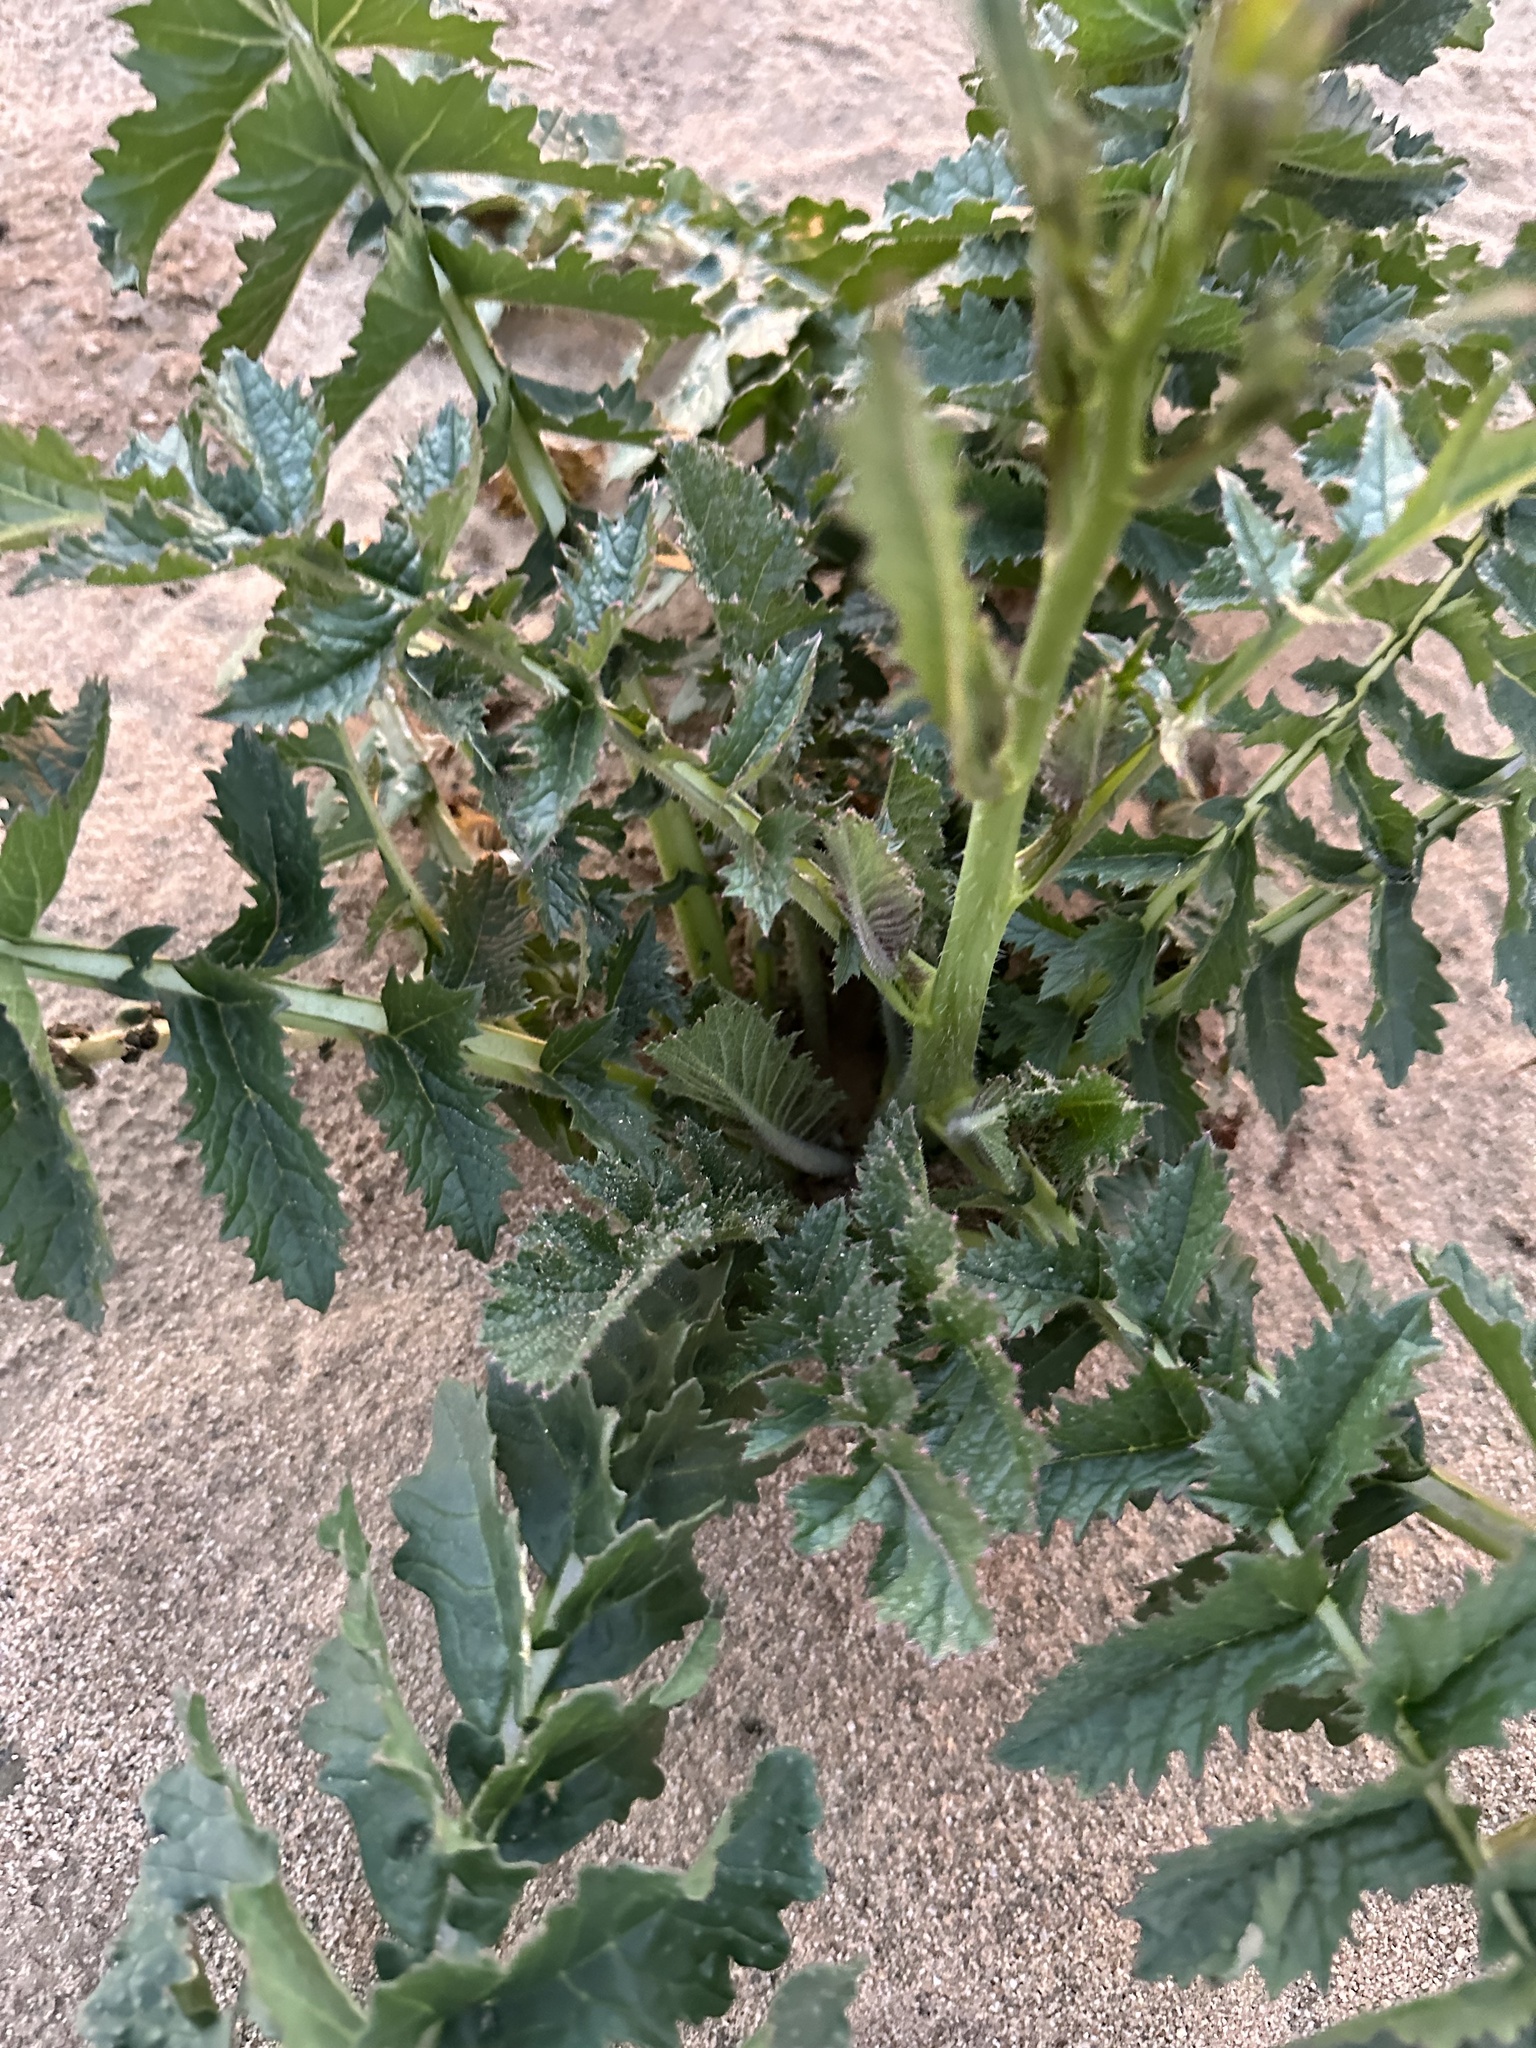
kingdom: Plantae
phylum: Tracheophyta
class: Magnoliopsida
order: Brassicales
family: Brassicaceae
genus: Brassica
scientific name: Brassica tournefortii
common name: Pale cabbage
